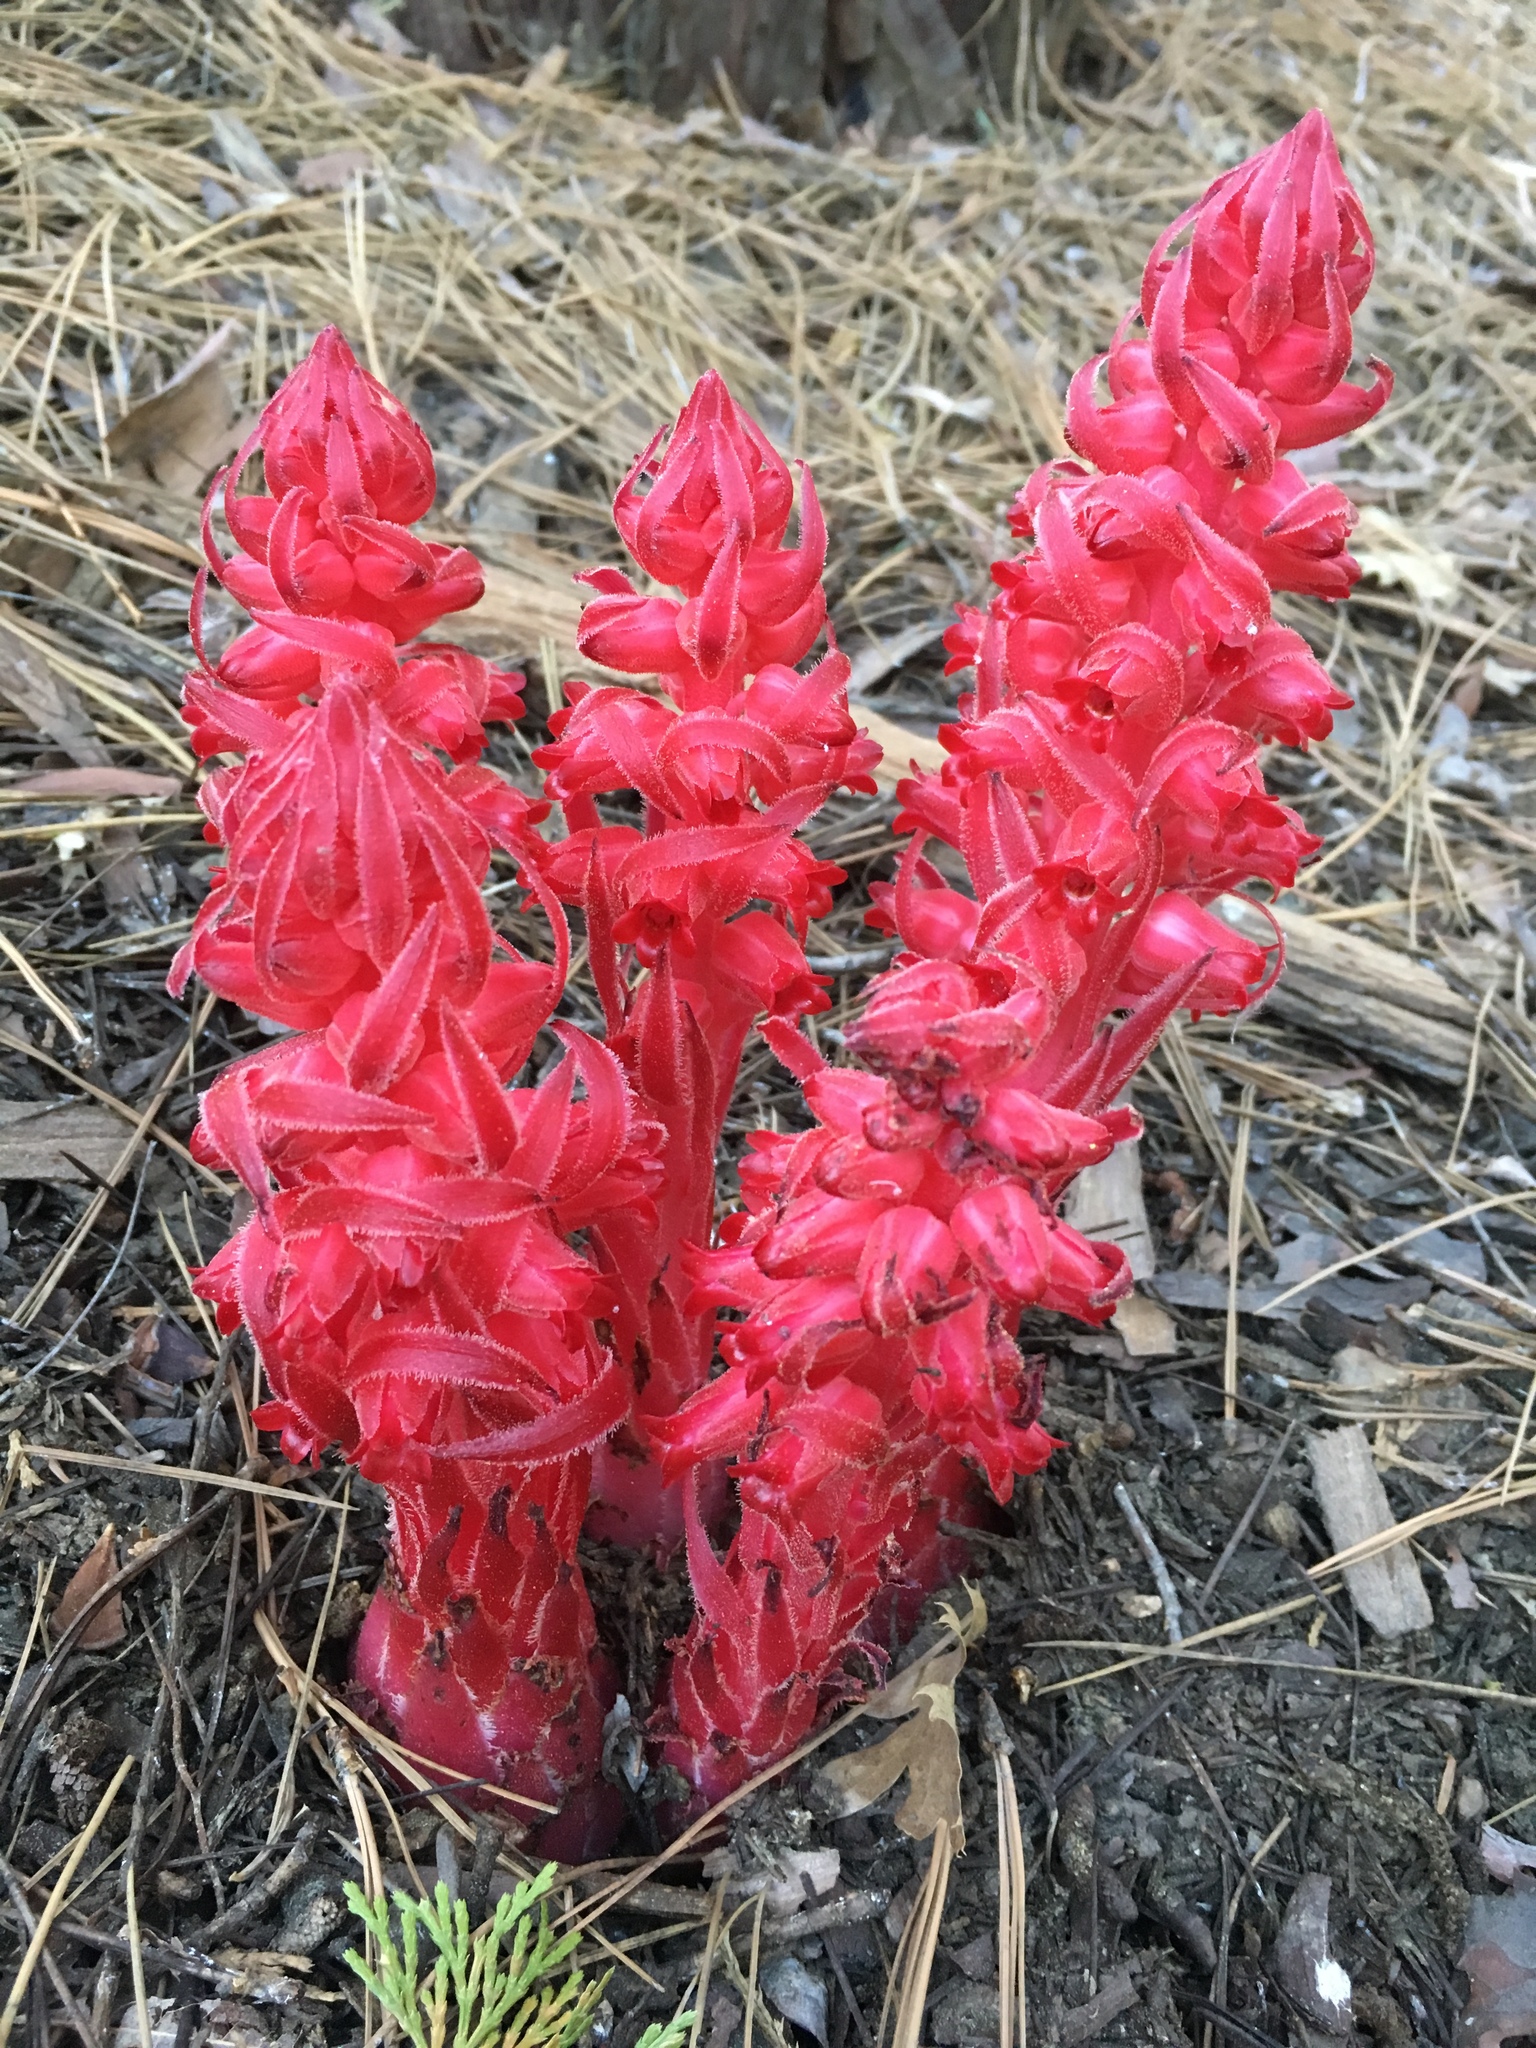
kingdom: Plantae
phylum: Tracheophyta
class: Magnoliopsida
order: Ericales
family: Ericaceae
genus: Sarcodes
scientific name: Sarcodes sanguinea
